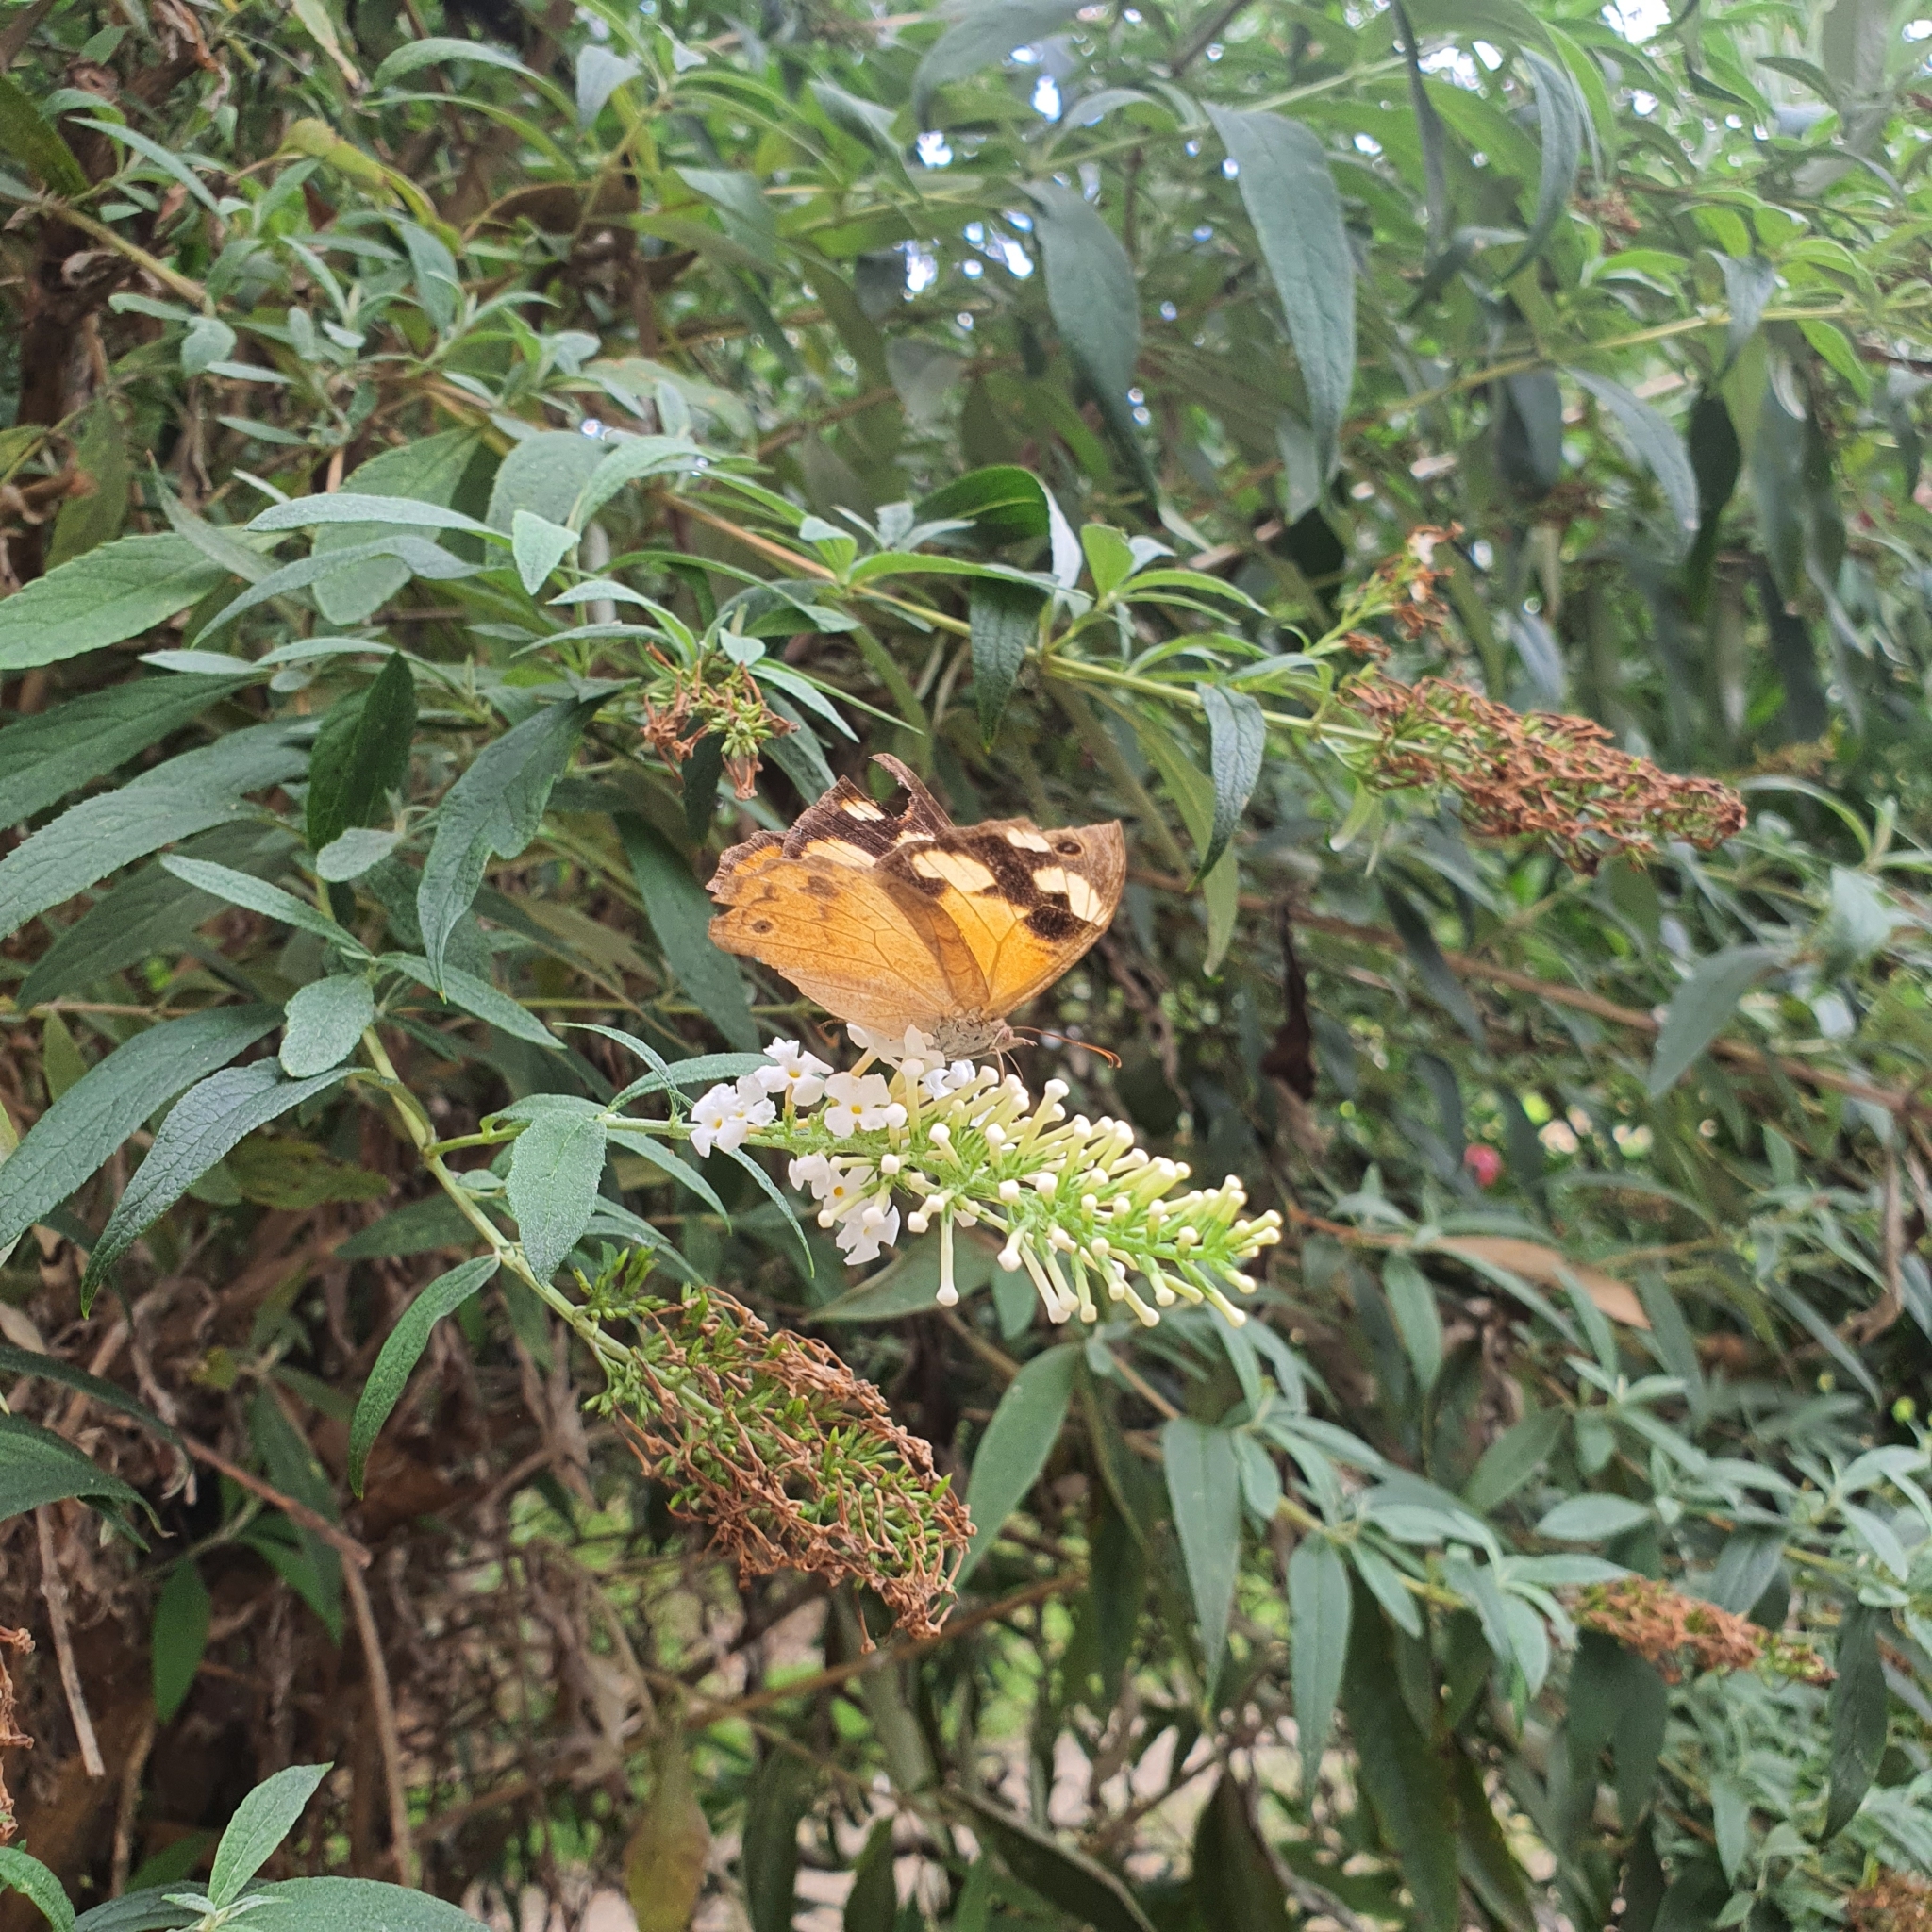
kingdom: Animalia
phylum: Arthropoda
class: Insecta
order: Lepidoptera
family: Nymphalidae
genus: Heteronympha
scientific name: Heteronympha merope
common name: Common brown
